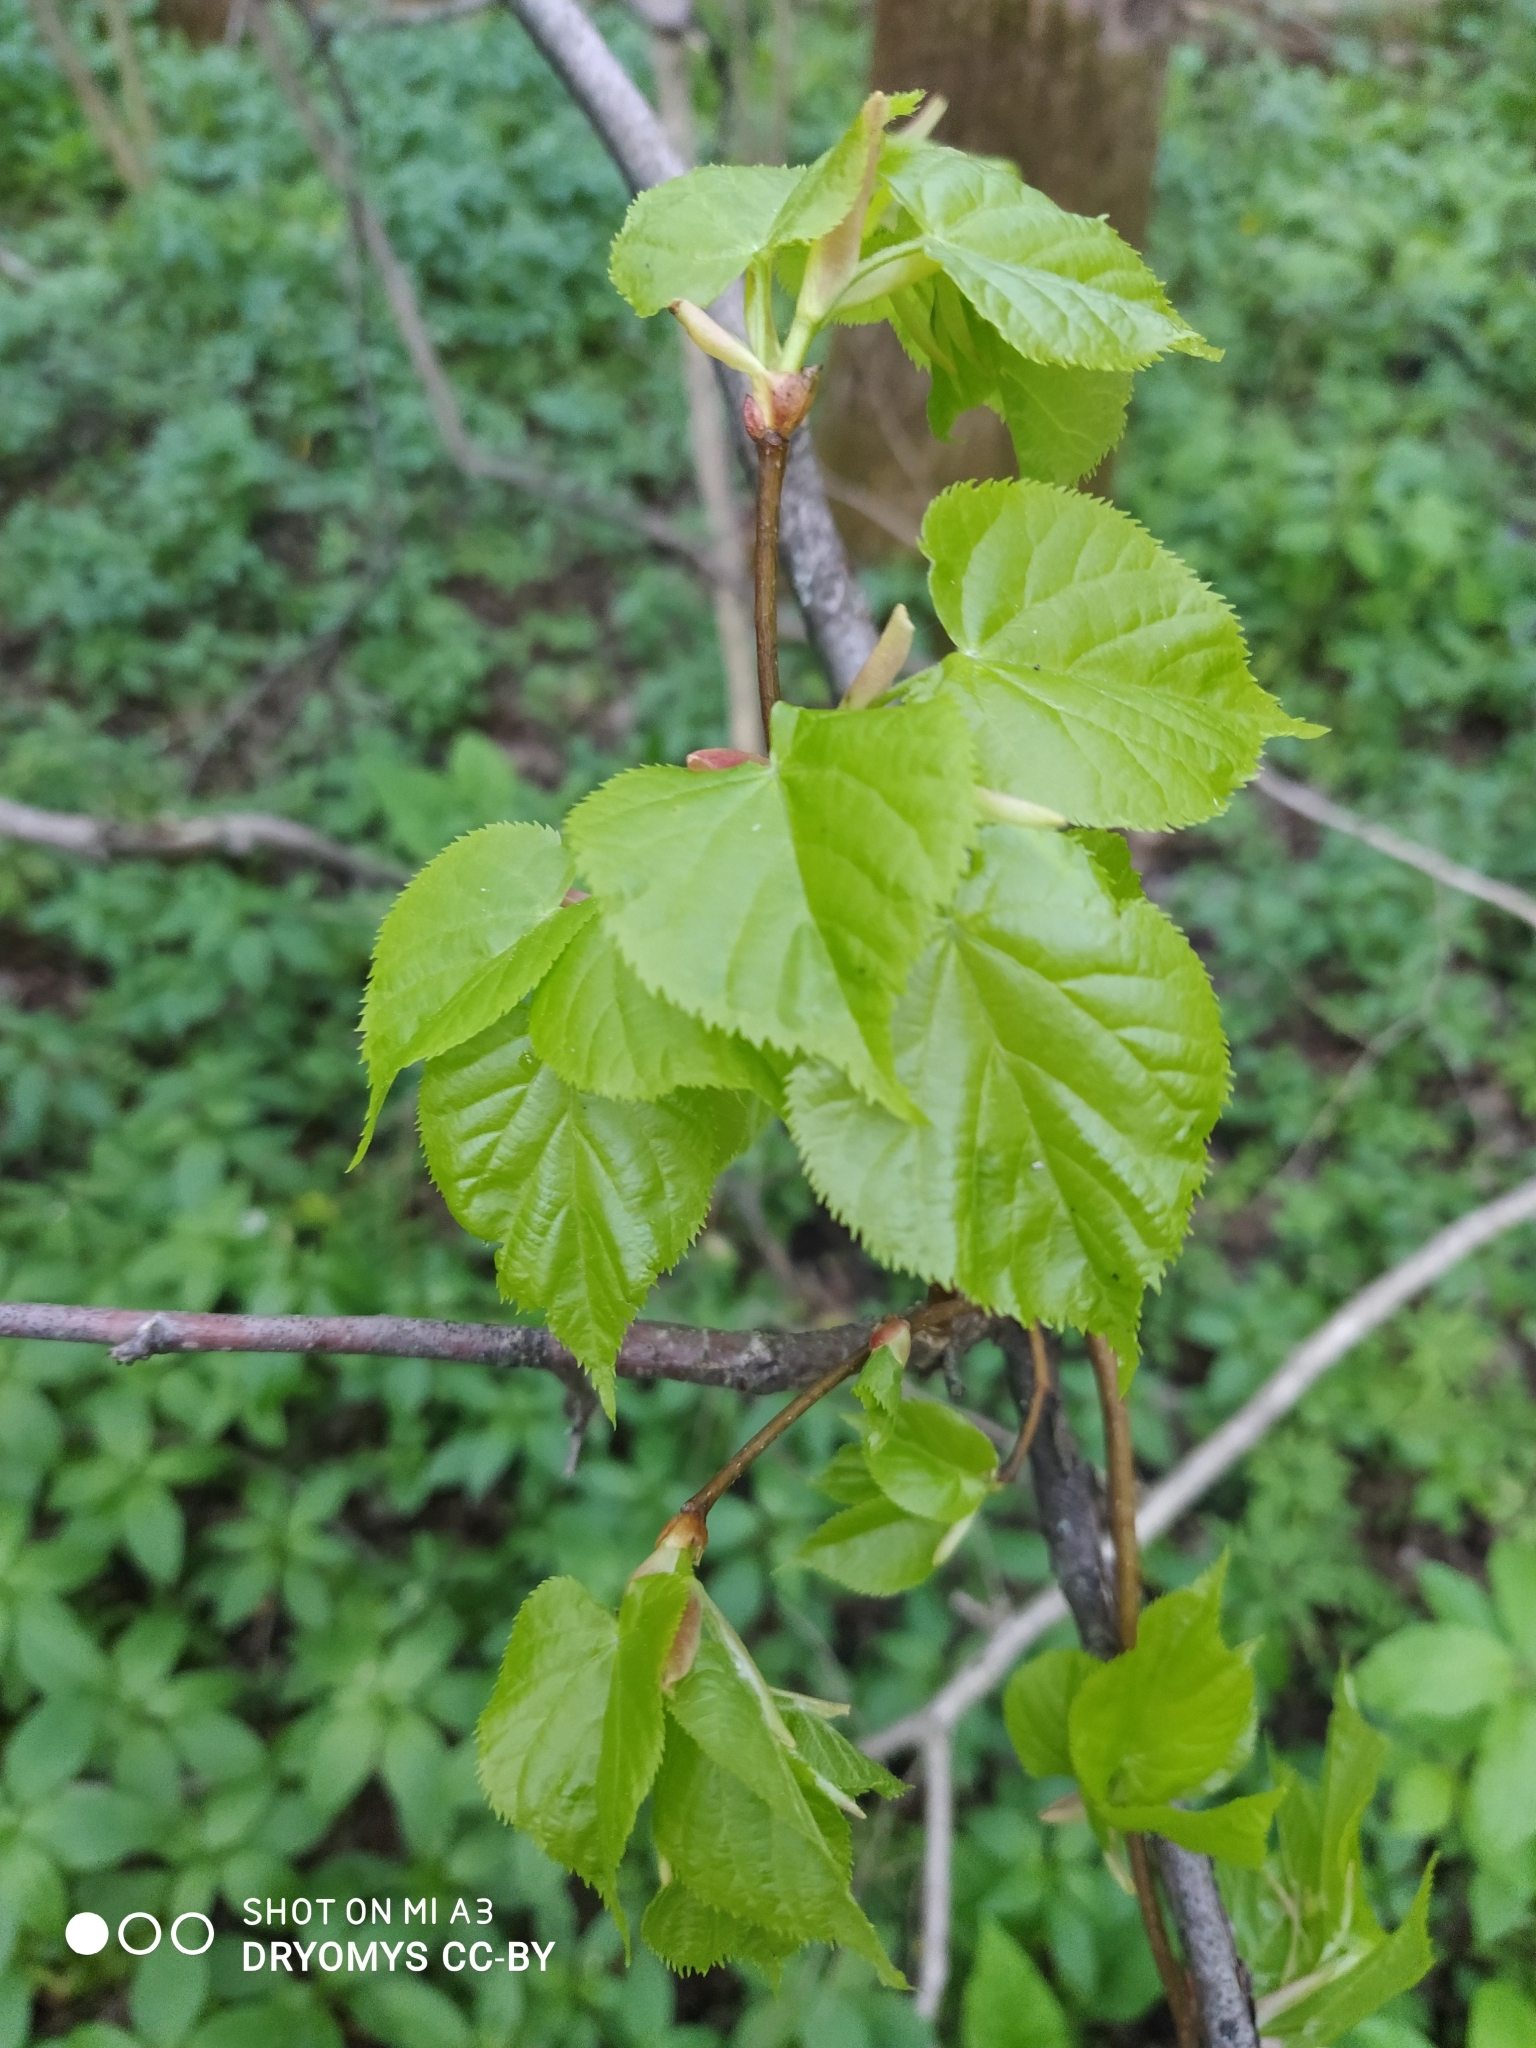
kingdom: Plantae
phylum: Tracheophyta
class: Magnoliopsida
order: Malvales
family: Malvaceae
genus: Tilia
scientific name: Tilia cordata
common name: Small-leaved lime
